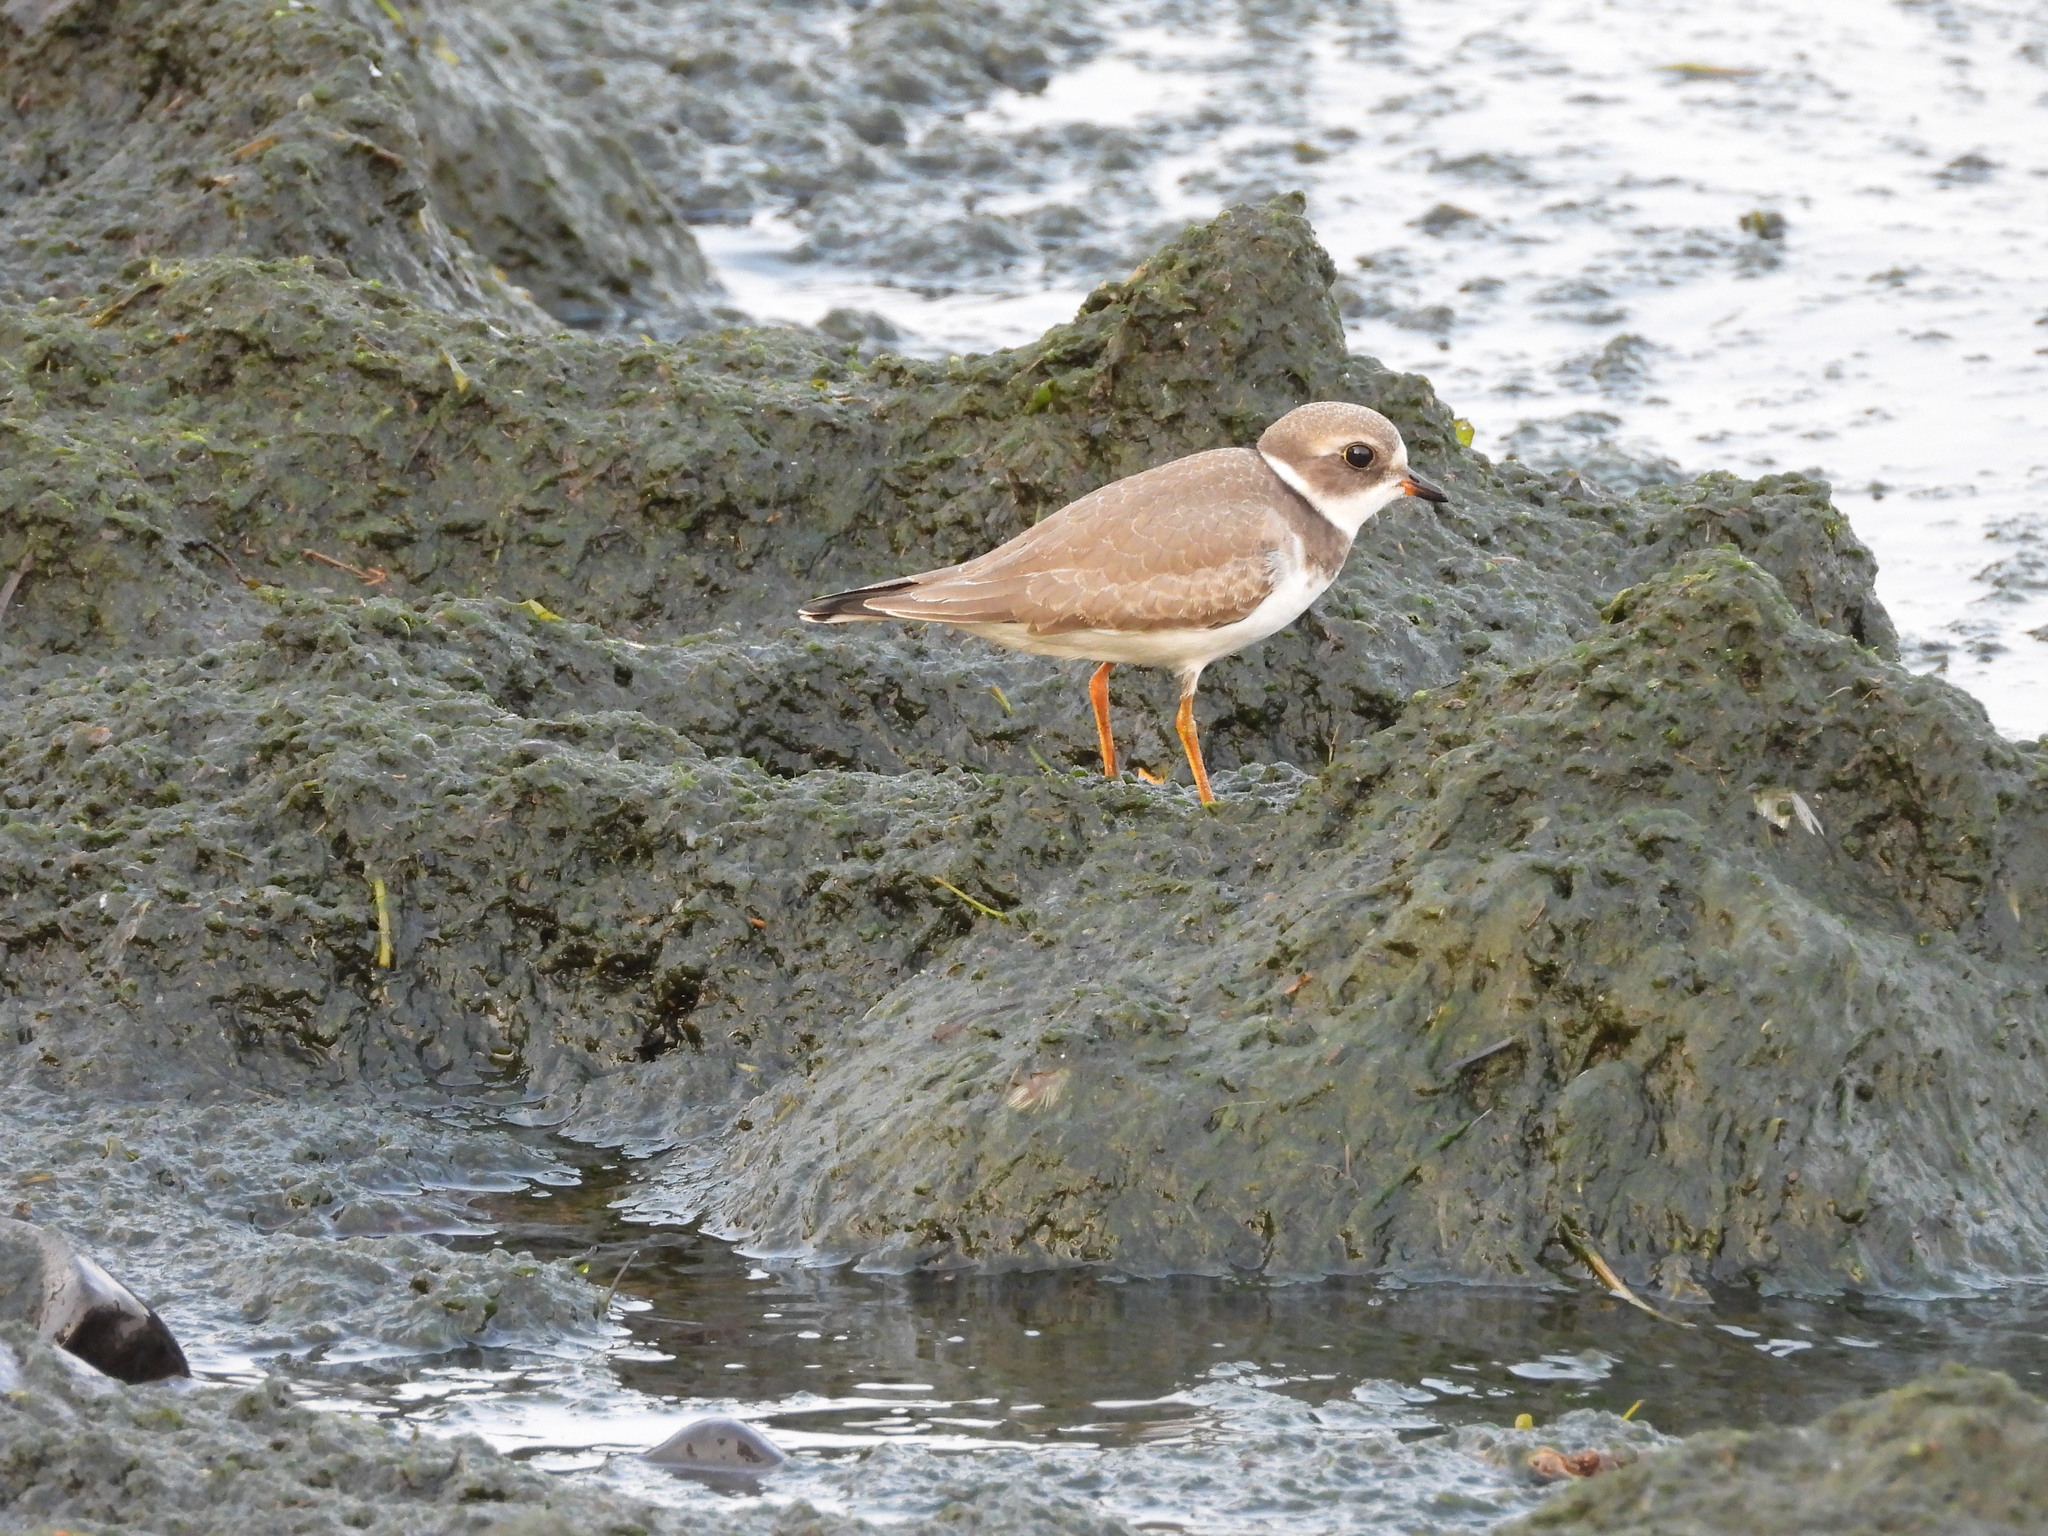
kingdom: Animalia
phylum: Chordata
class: Aves
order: Charadriiformes
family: Charadriidae
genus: Charadrius
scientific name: Charadrius semipalmatus
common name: Semipalmated plover
